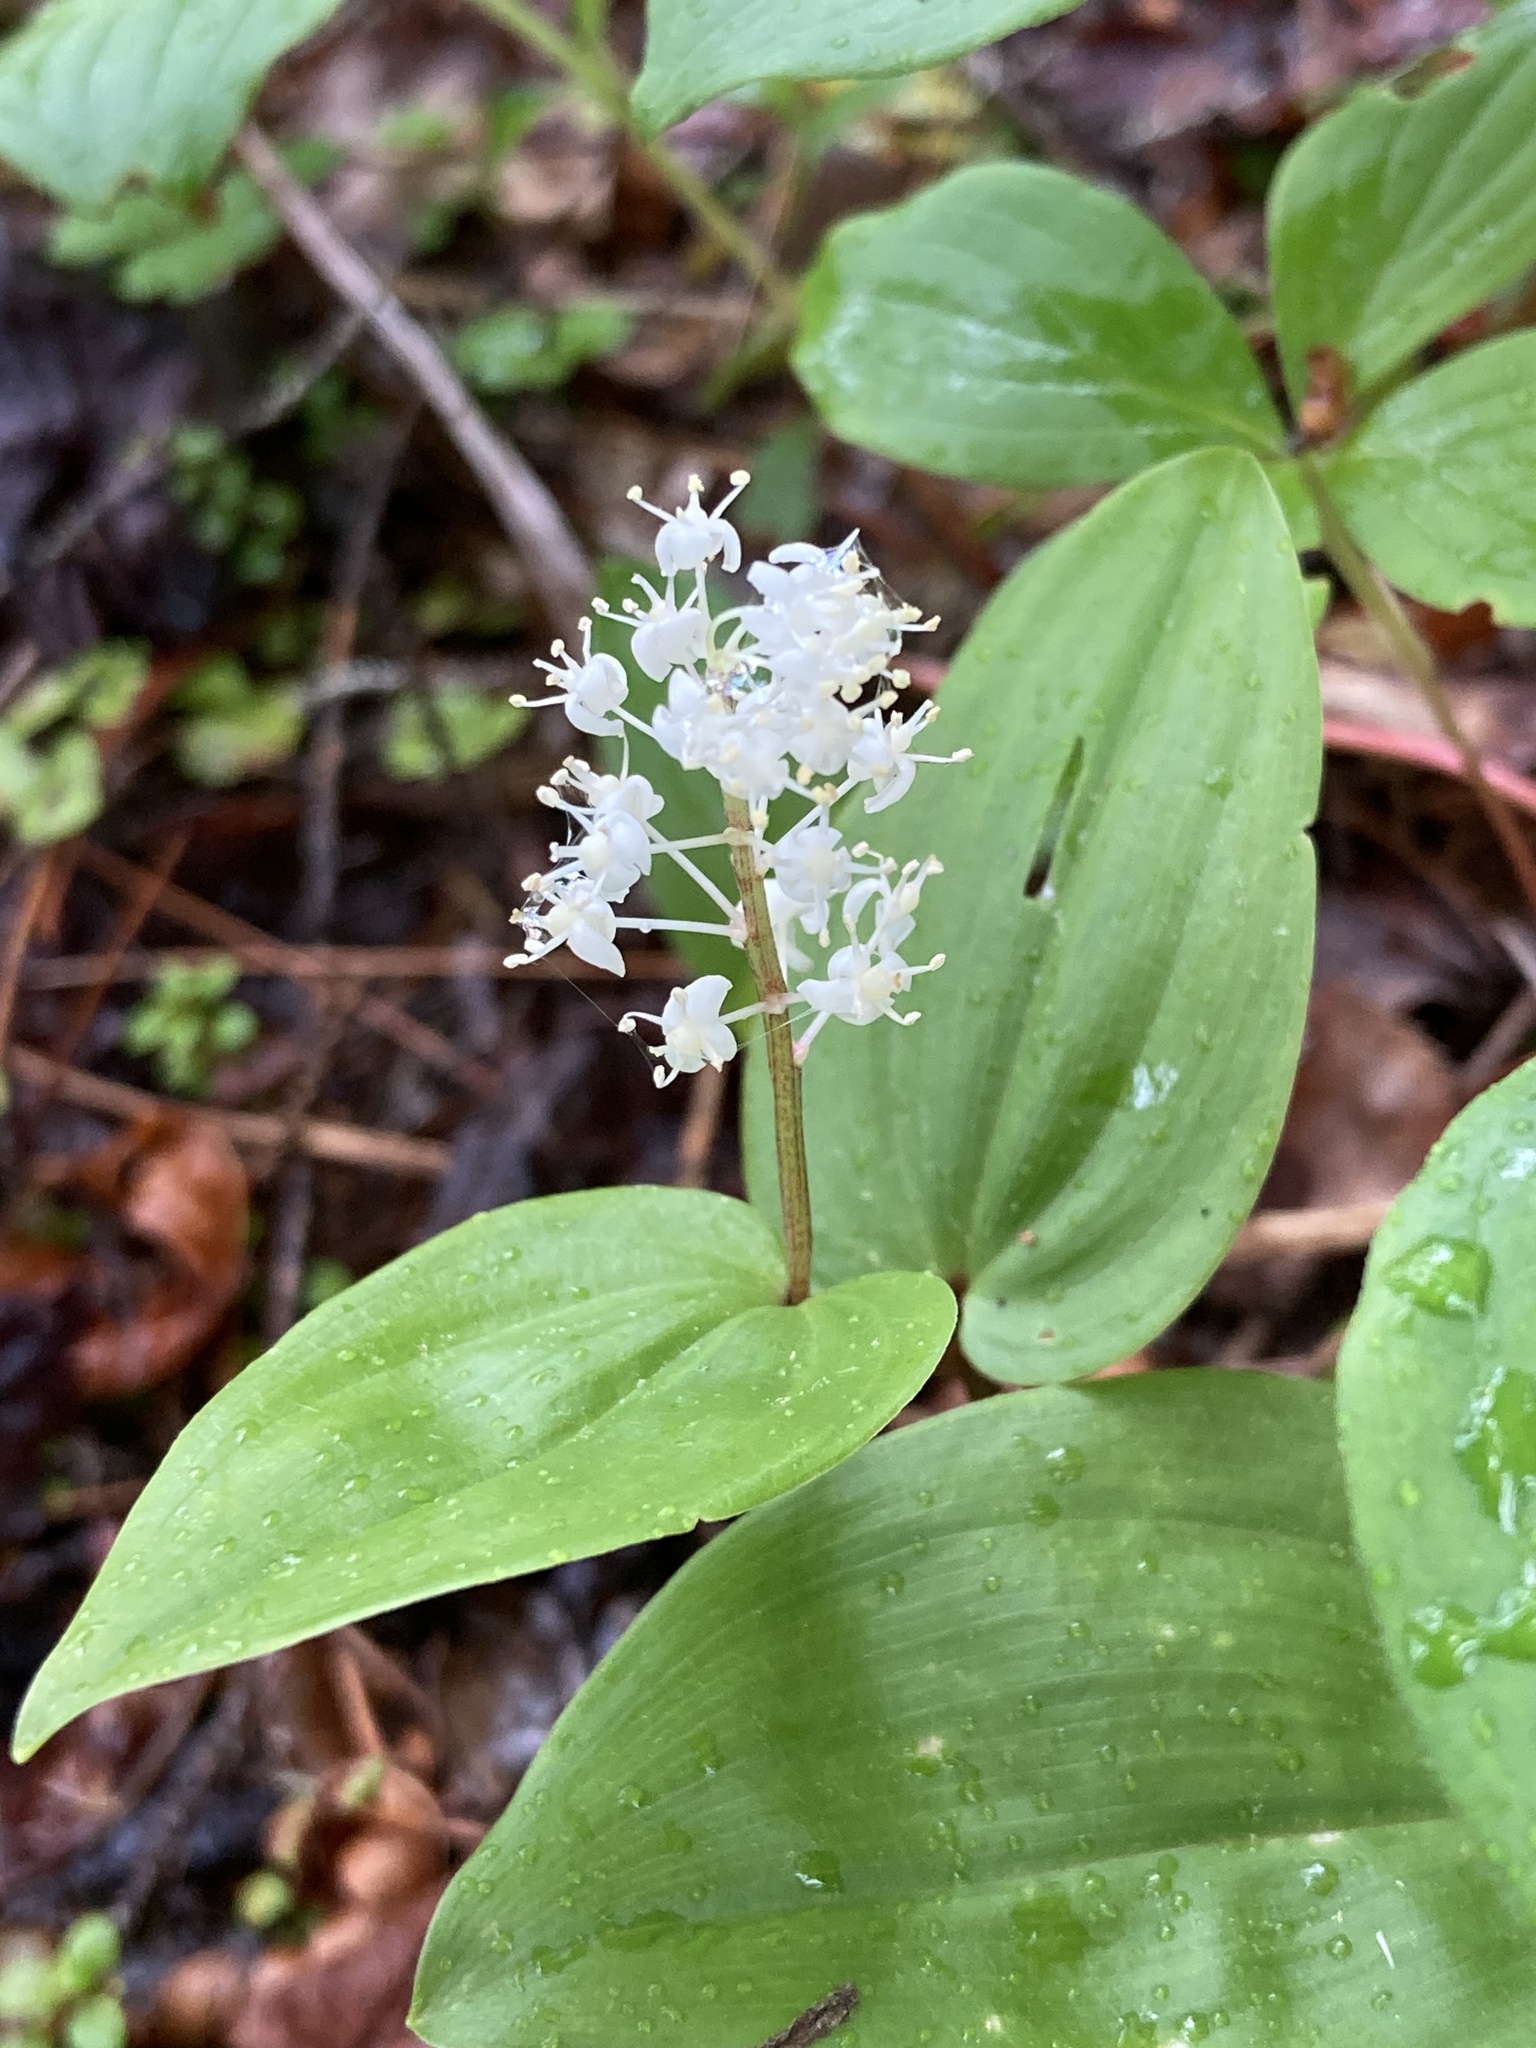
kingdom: Plantae
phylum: Tracheophyta
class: Liliopsida
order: Asparagales
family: Asparagaceae
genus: Maianthemum
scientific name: Maianthemum canadense
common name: False lily-of-the-valley
